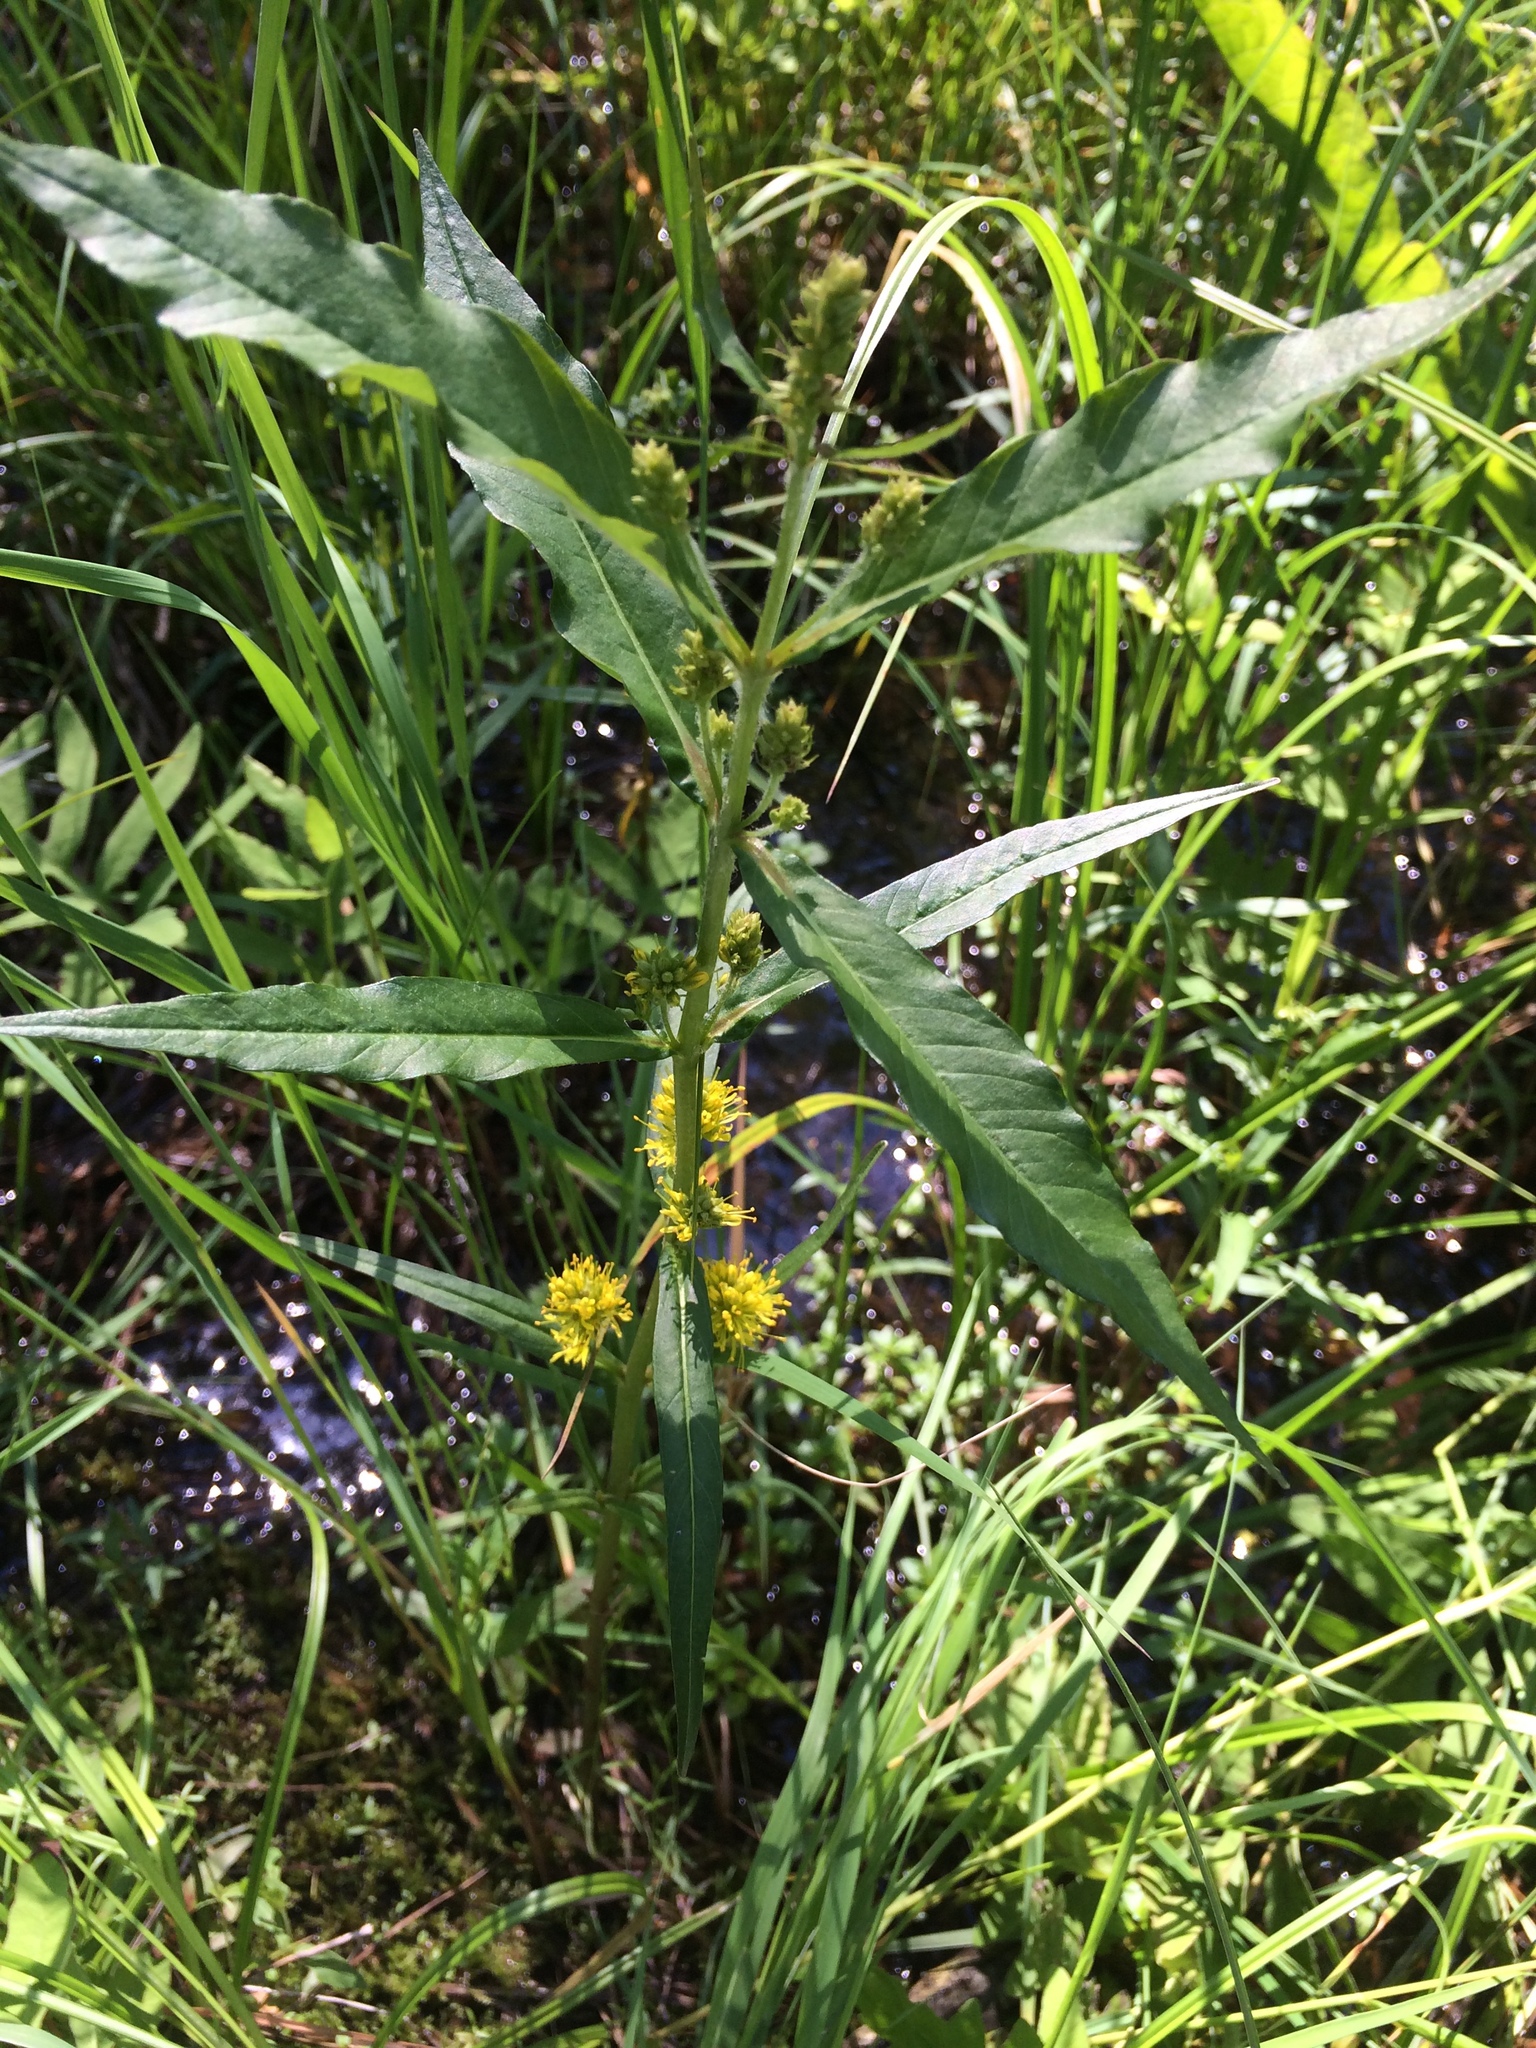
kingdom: Plantae
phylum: Tracheophyta
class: Magnoliopsida
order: Ericales
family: Primulaceae
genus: Lysimachia
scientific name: Lysimachia thyrsiflora
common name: Tufted loosestrife
